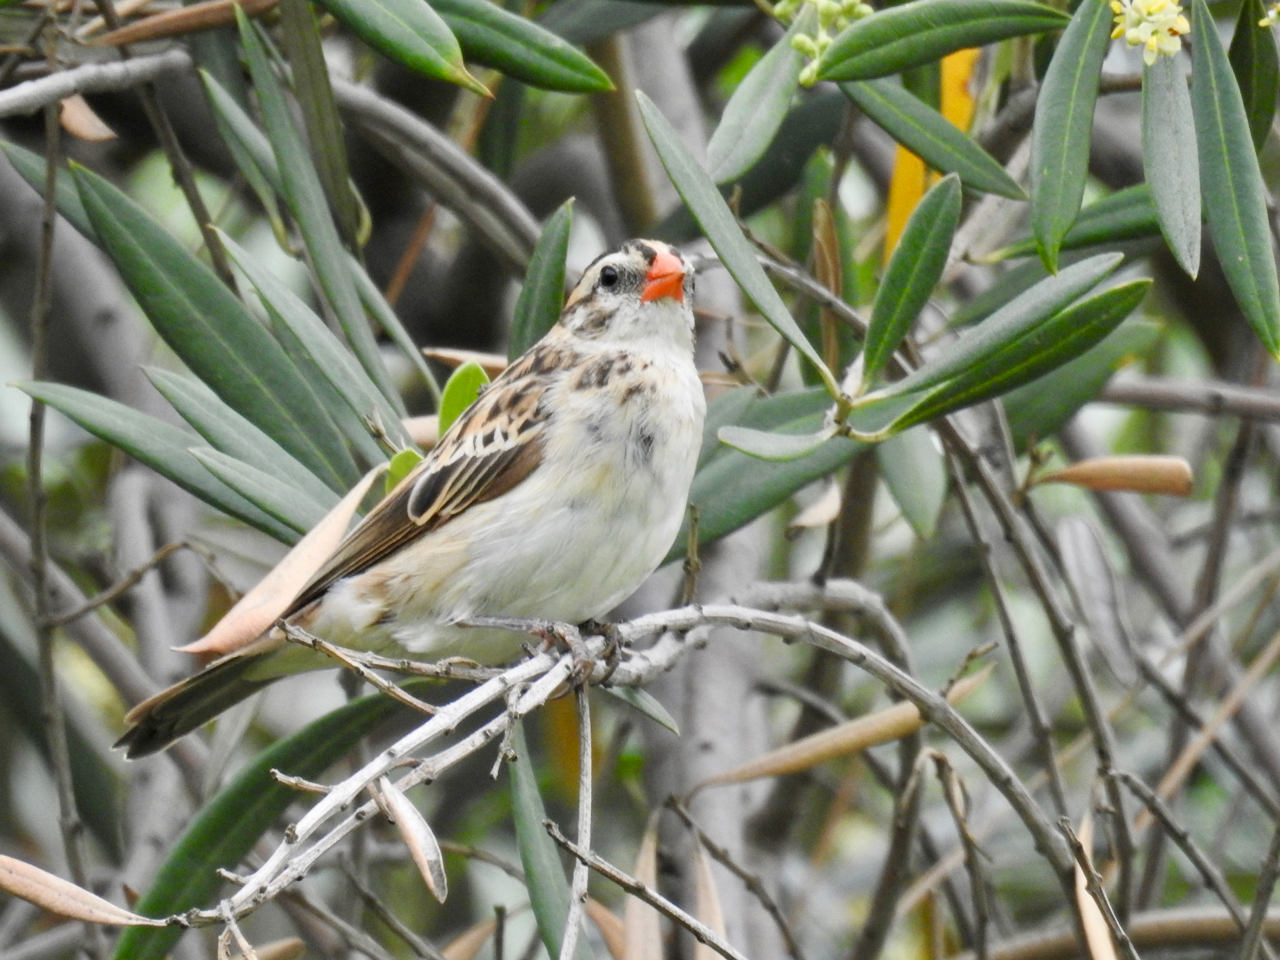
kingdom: Animalia
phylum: Chordata
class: Aves
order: Passeriformes
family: Viduidae
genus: Vidua
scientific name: Vidua macroura
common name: Pin-tailed whydah
